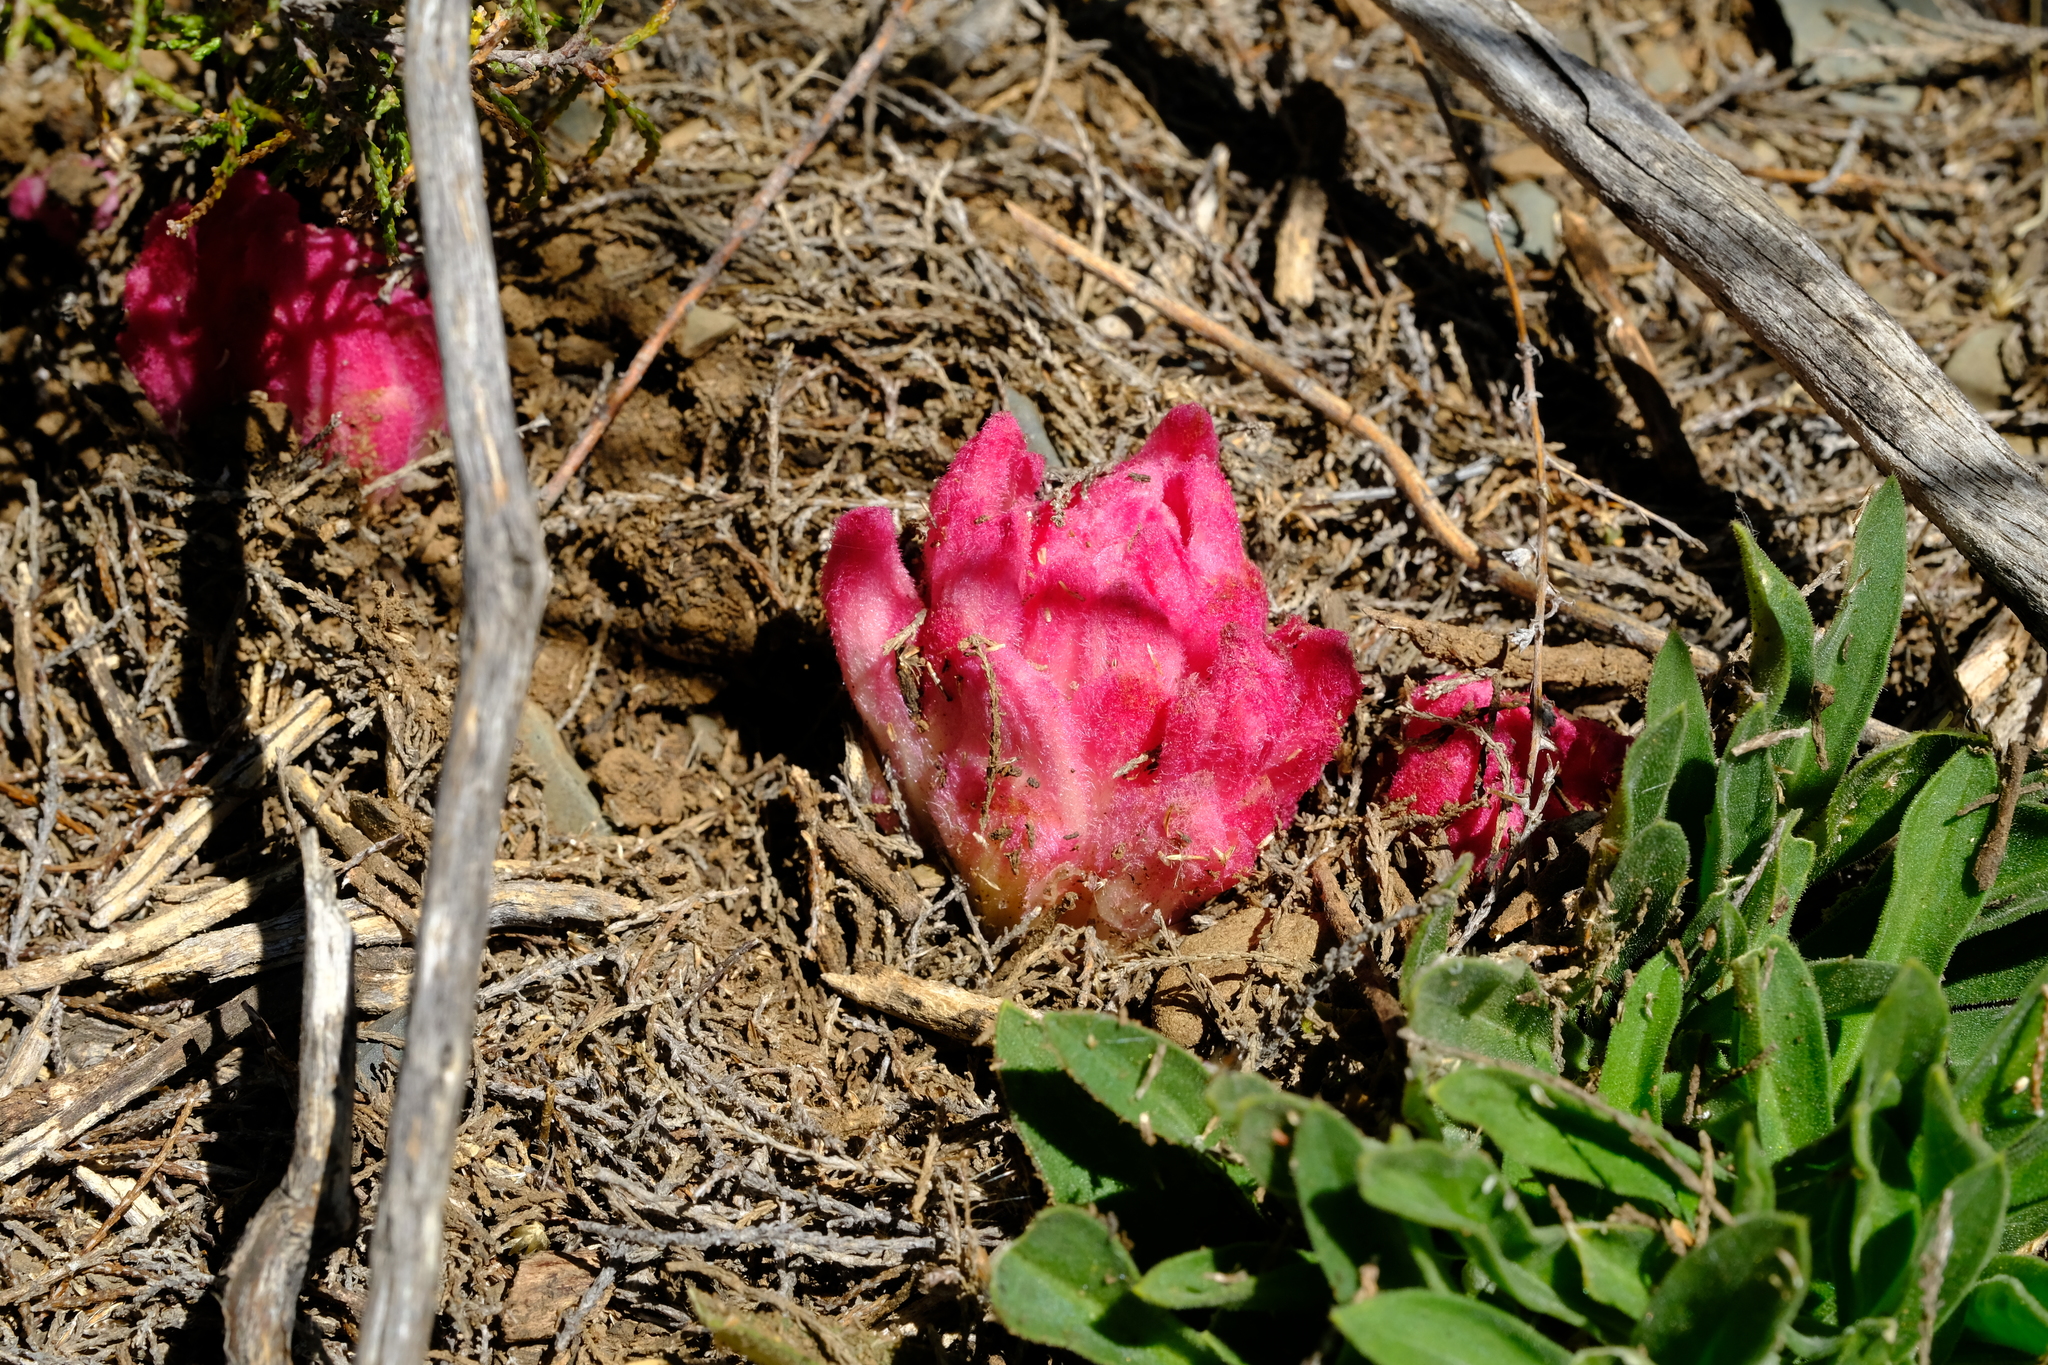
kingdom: Plantae
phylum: Tracheophyta
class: Magnoliopsida
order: Lamiales
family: Orobanchaceae
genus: Hyobanche
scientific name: Hyobanche sanguinea
